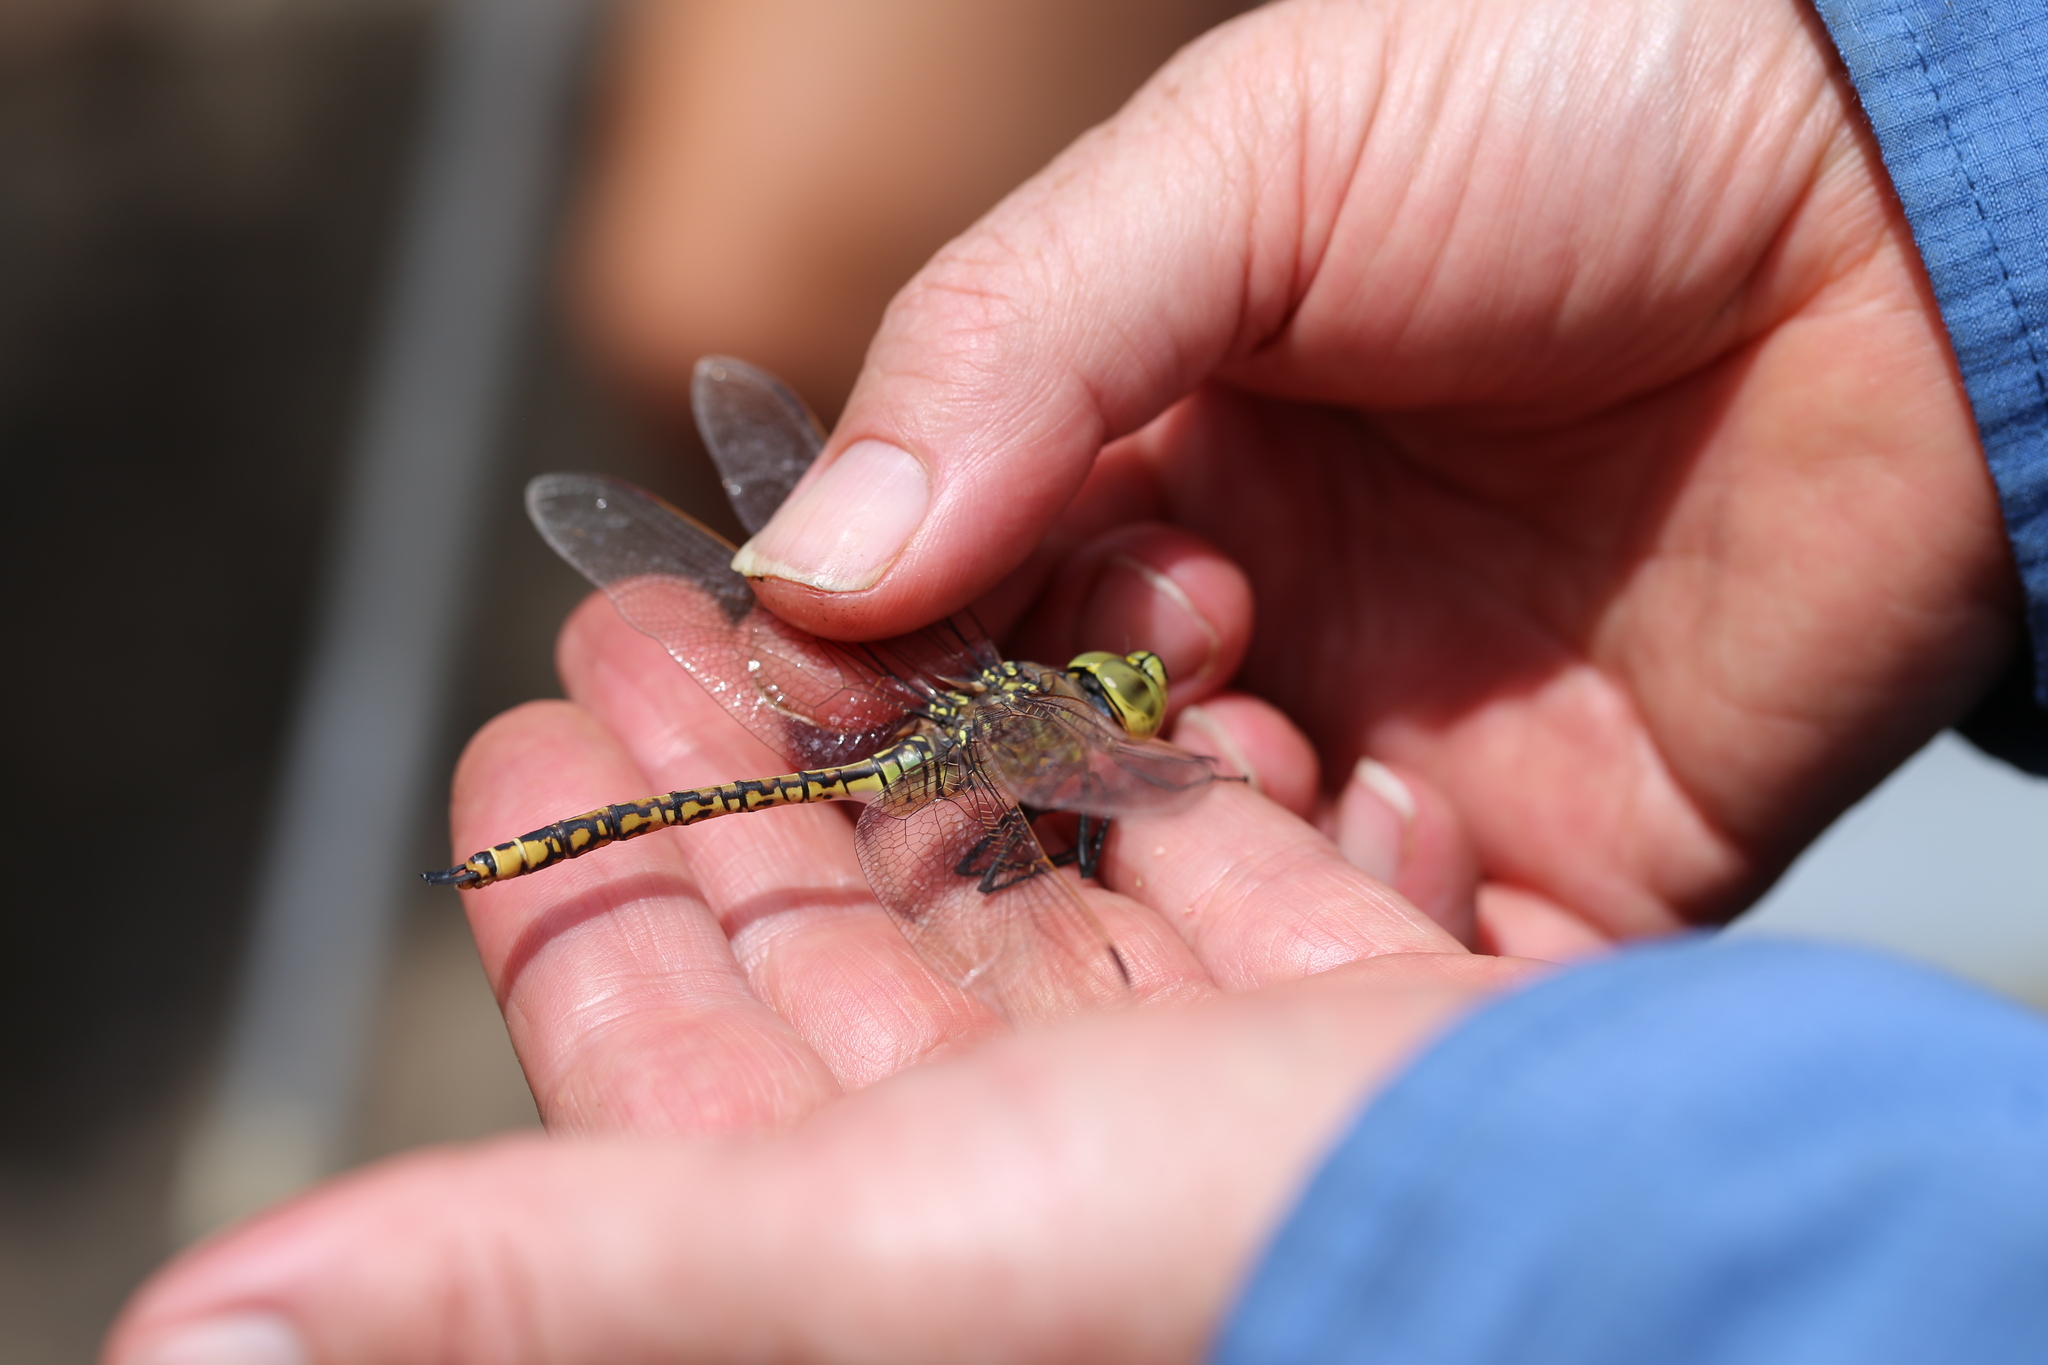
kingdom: Animalia
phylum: Arthropoda
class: Insecta
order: Odonata
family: Aeshnidae
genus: Anax
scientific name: Anax papuensis
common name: Australian emperor
